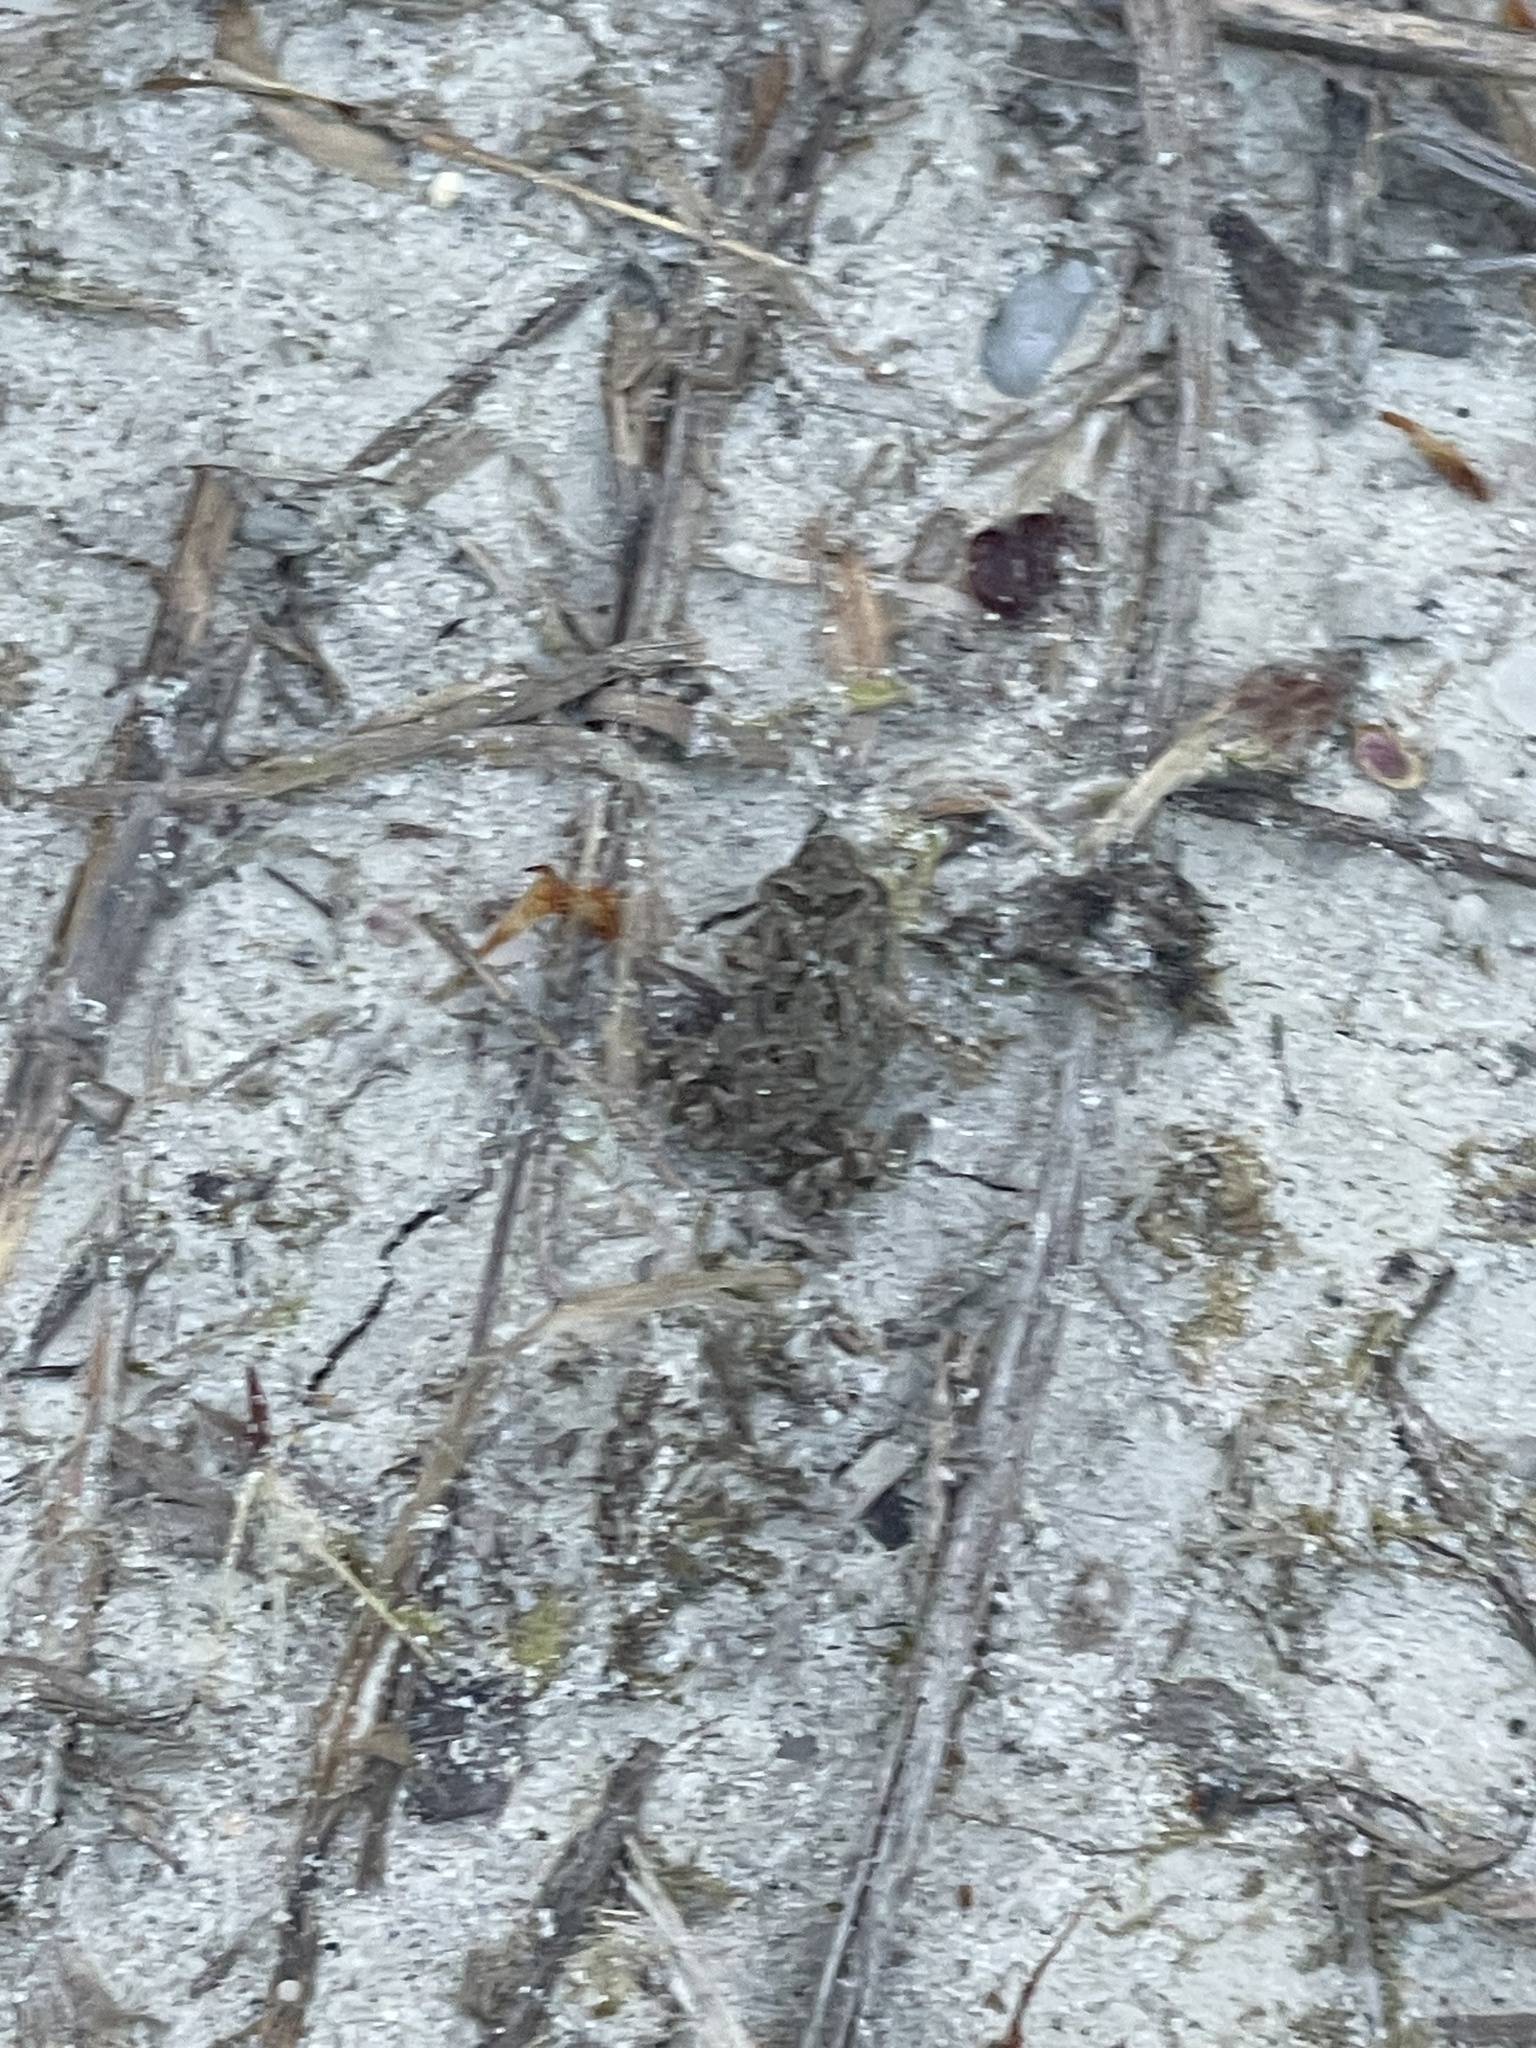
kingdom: Animalia
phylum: Chordata
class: Amphibia
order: Anura
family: Bufonidae
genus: Anaxyrus
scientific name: Anaxyrus fowleri
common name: Fowler's toad
